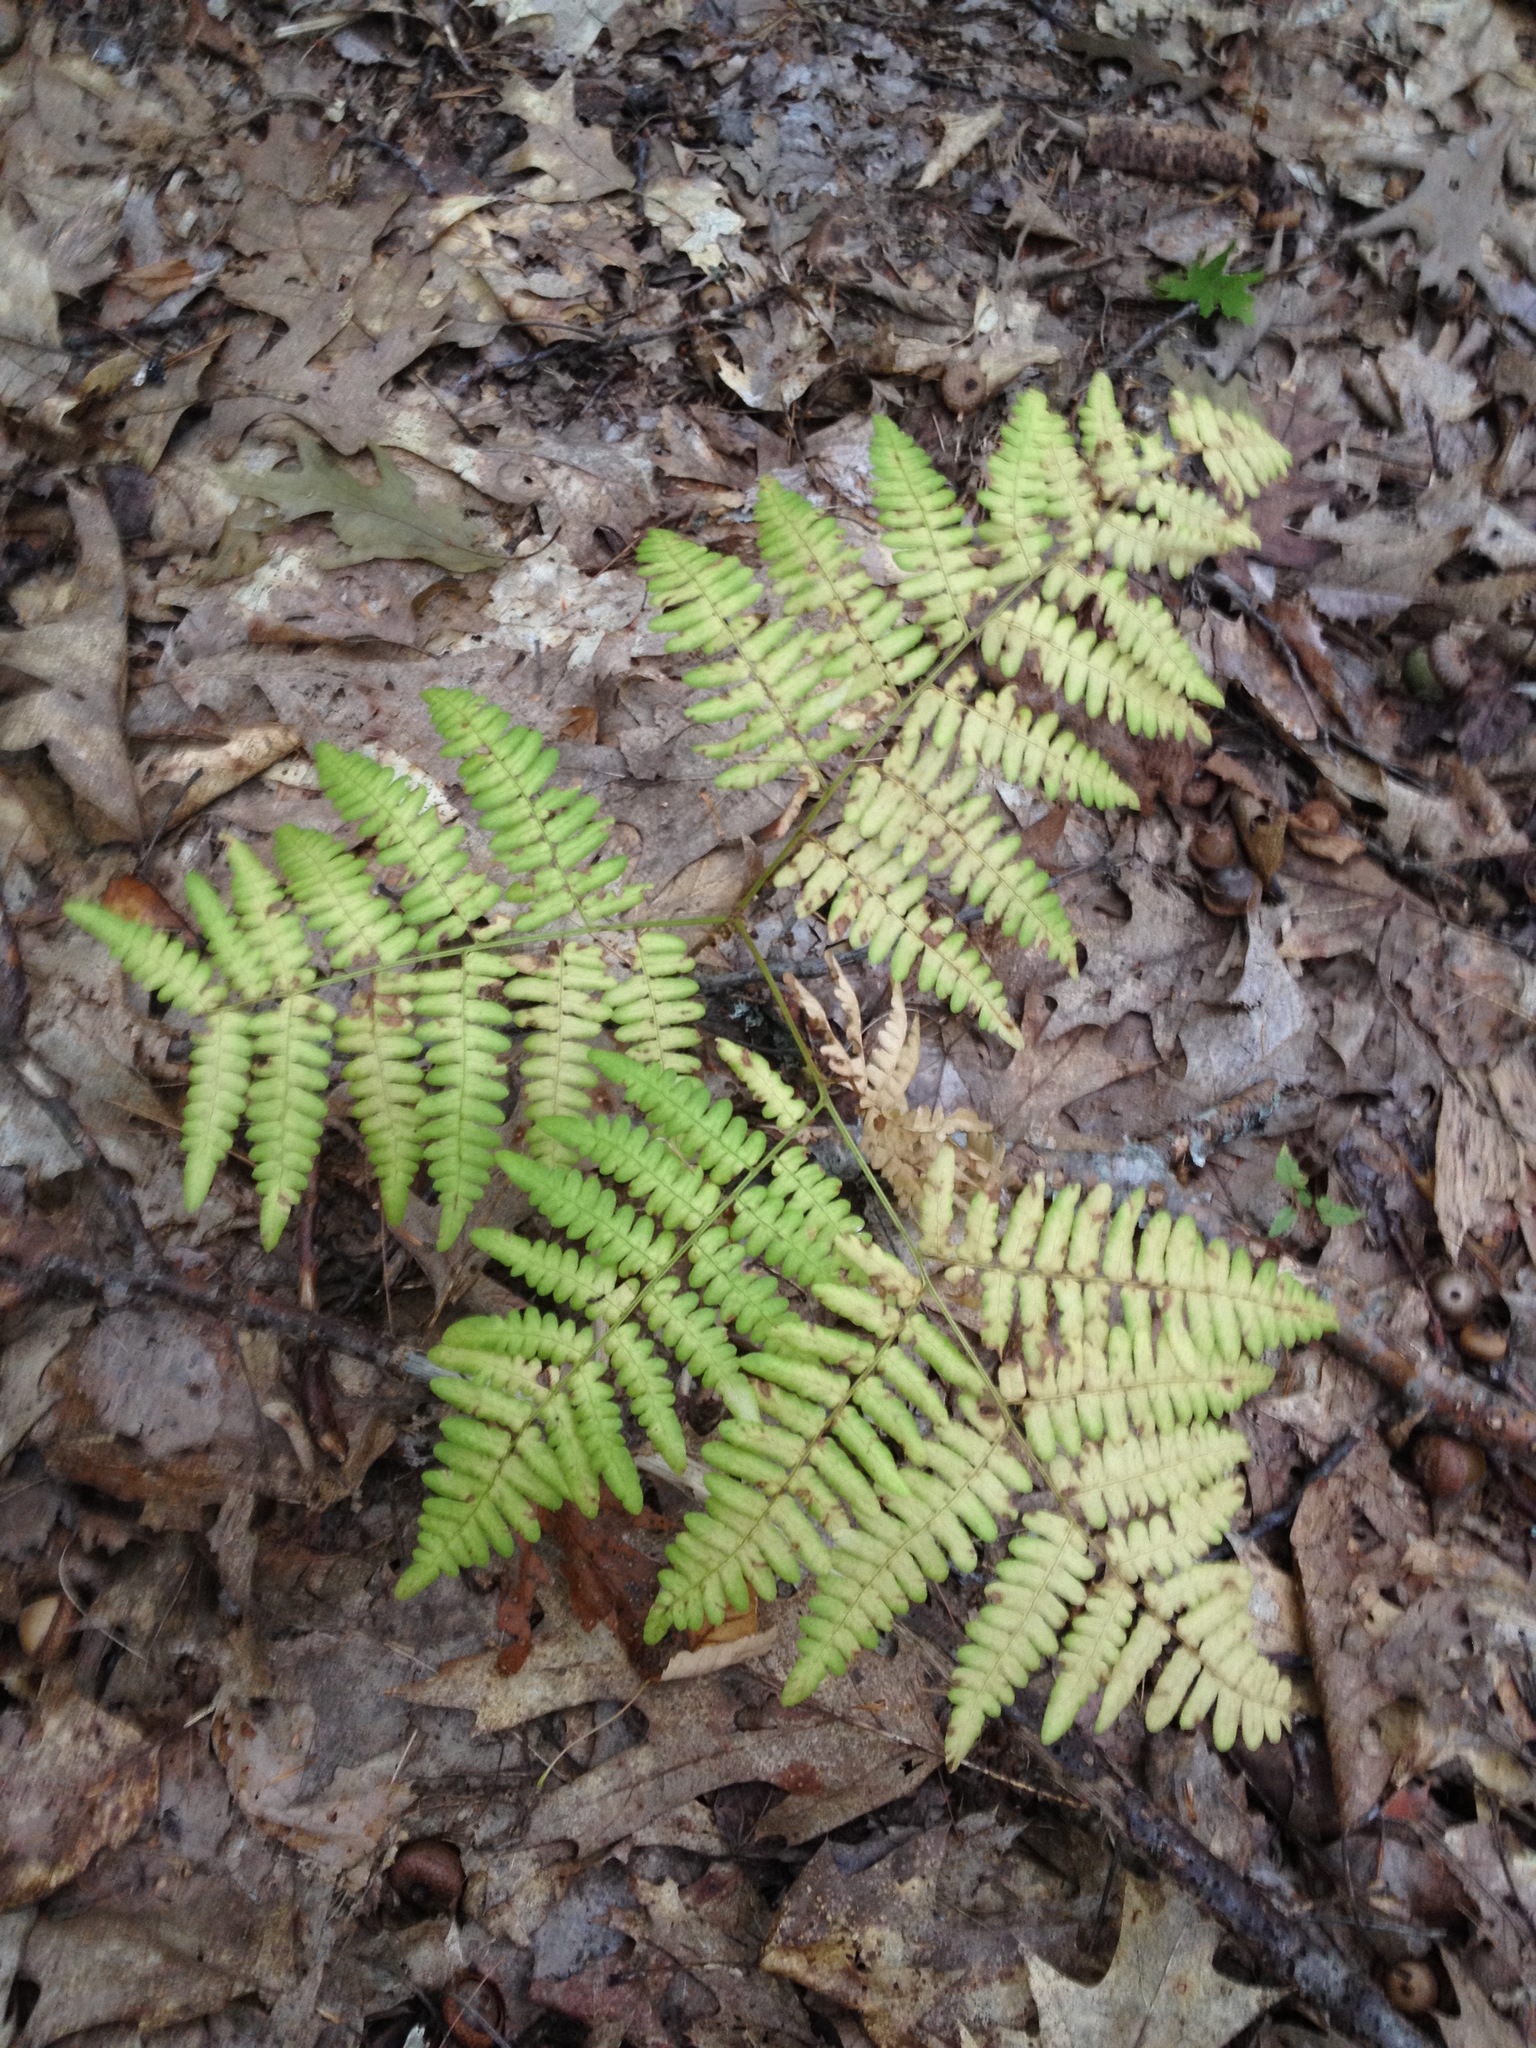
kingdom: Plantae
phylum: Tracheophyta
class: Polypodiopsida
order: Polypodiales
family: Dennstaedtiaceae
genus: Pteridium
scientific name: Pteridium aquilinum
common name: Bracken
